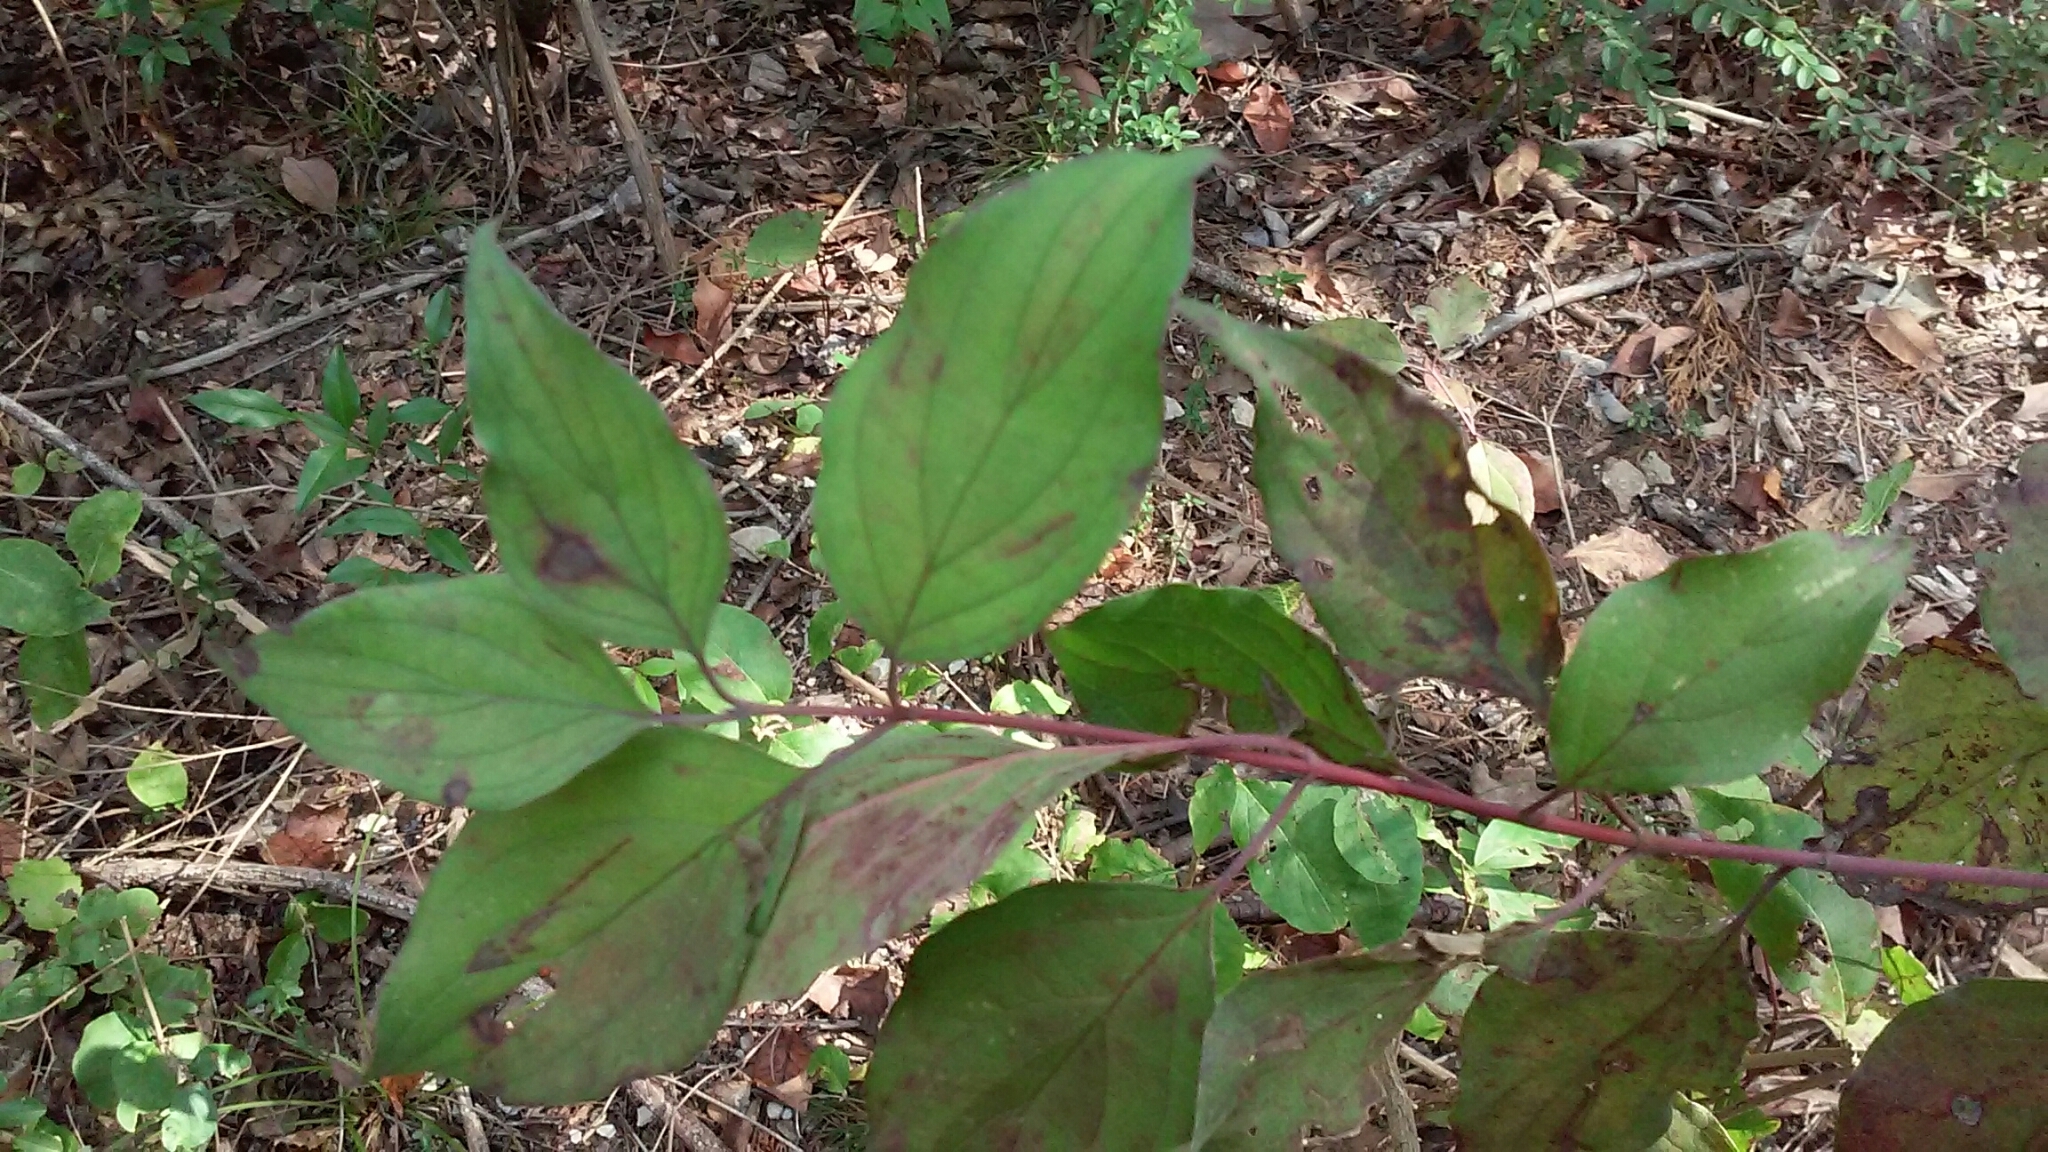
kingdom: Plantae
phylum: Tracheophyta
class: Magnoliopsida
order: Cornales
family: Cornaceae
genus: Cornus
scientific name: Cornus drummondii
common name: Rough-leaf dogwood
